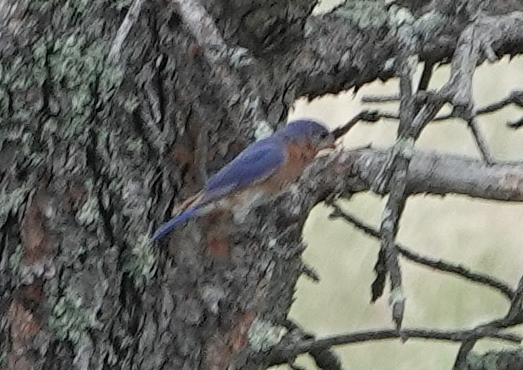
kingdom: Animalia
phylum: Chordata
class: Aves
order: Passeriformes
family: Turdidae
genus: Sialia
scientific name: Sialia sialis
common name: Eastern bluebird
